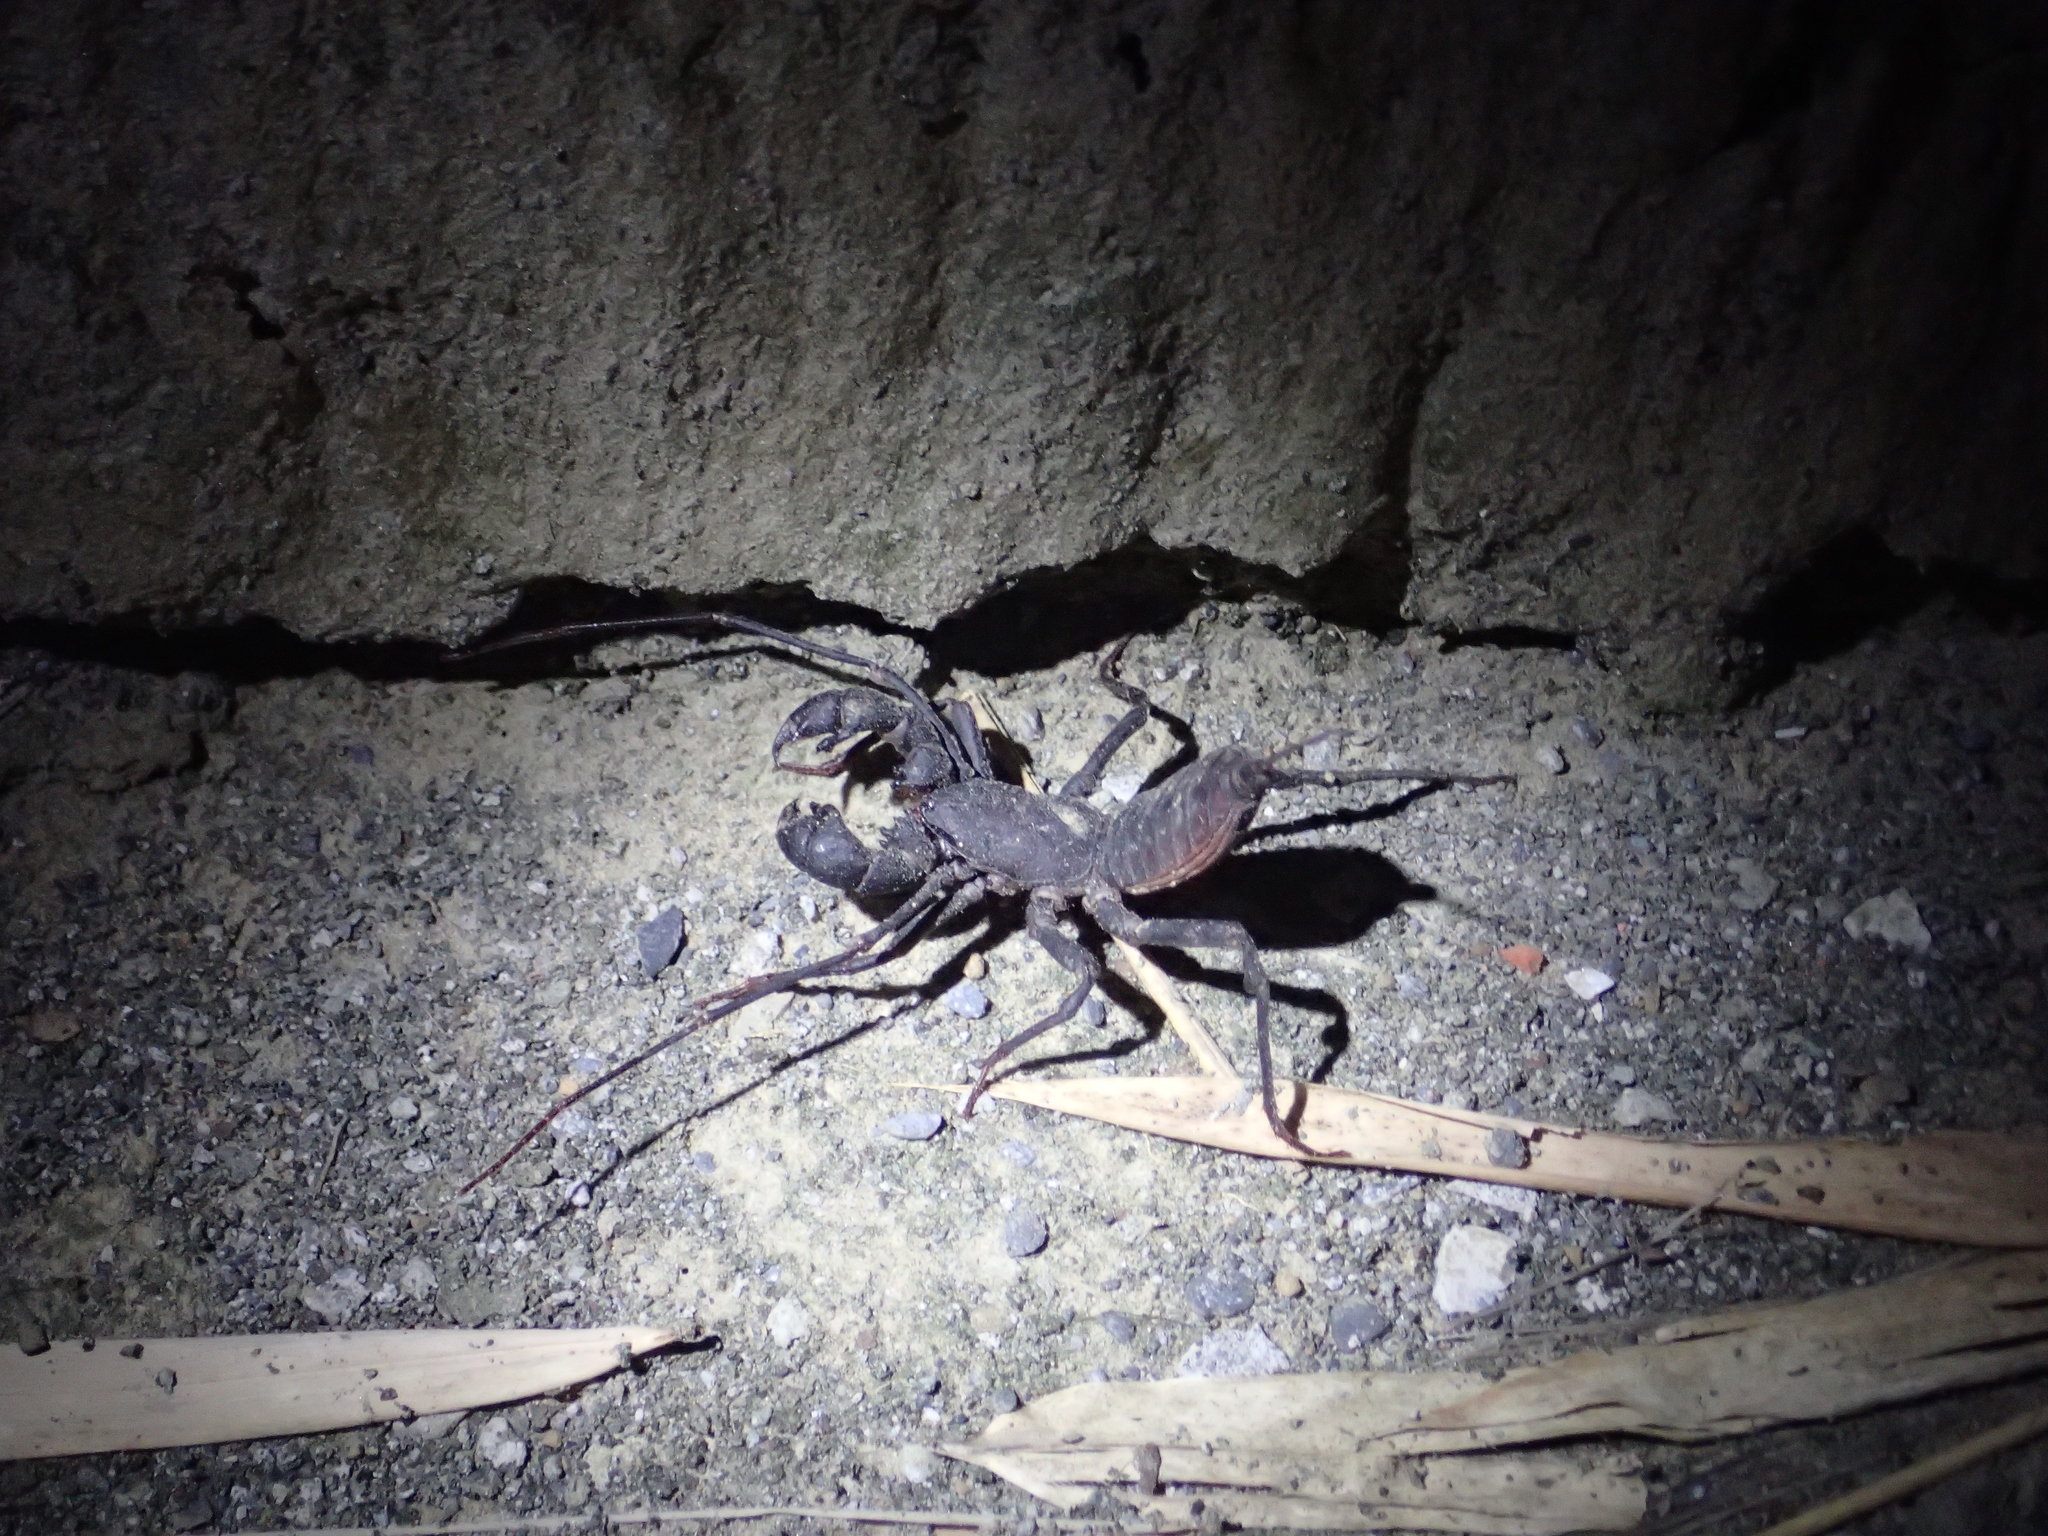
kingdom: Animalia
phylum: Arthropoda
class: Arachnida
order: Uropygi
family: Thelyphonidae
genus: Typopeltis
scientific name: Typopeltis crucifer
